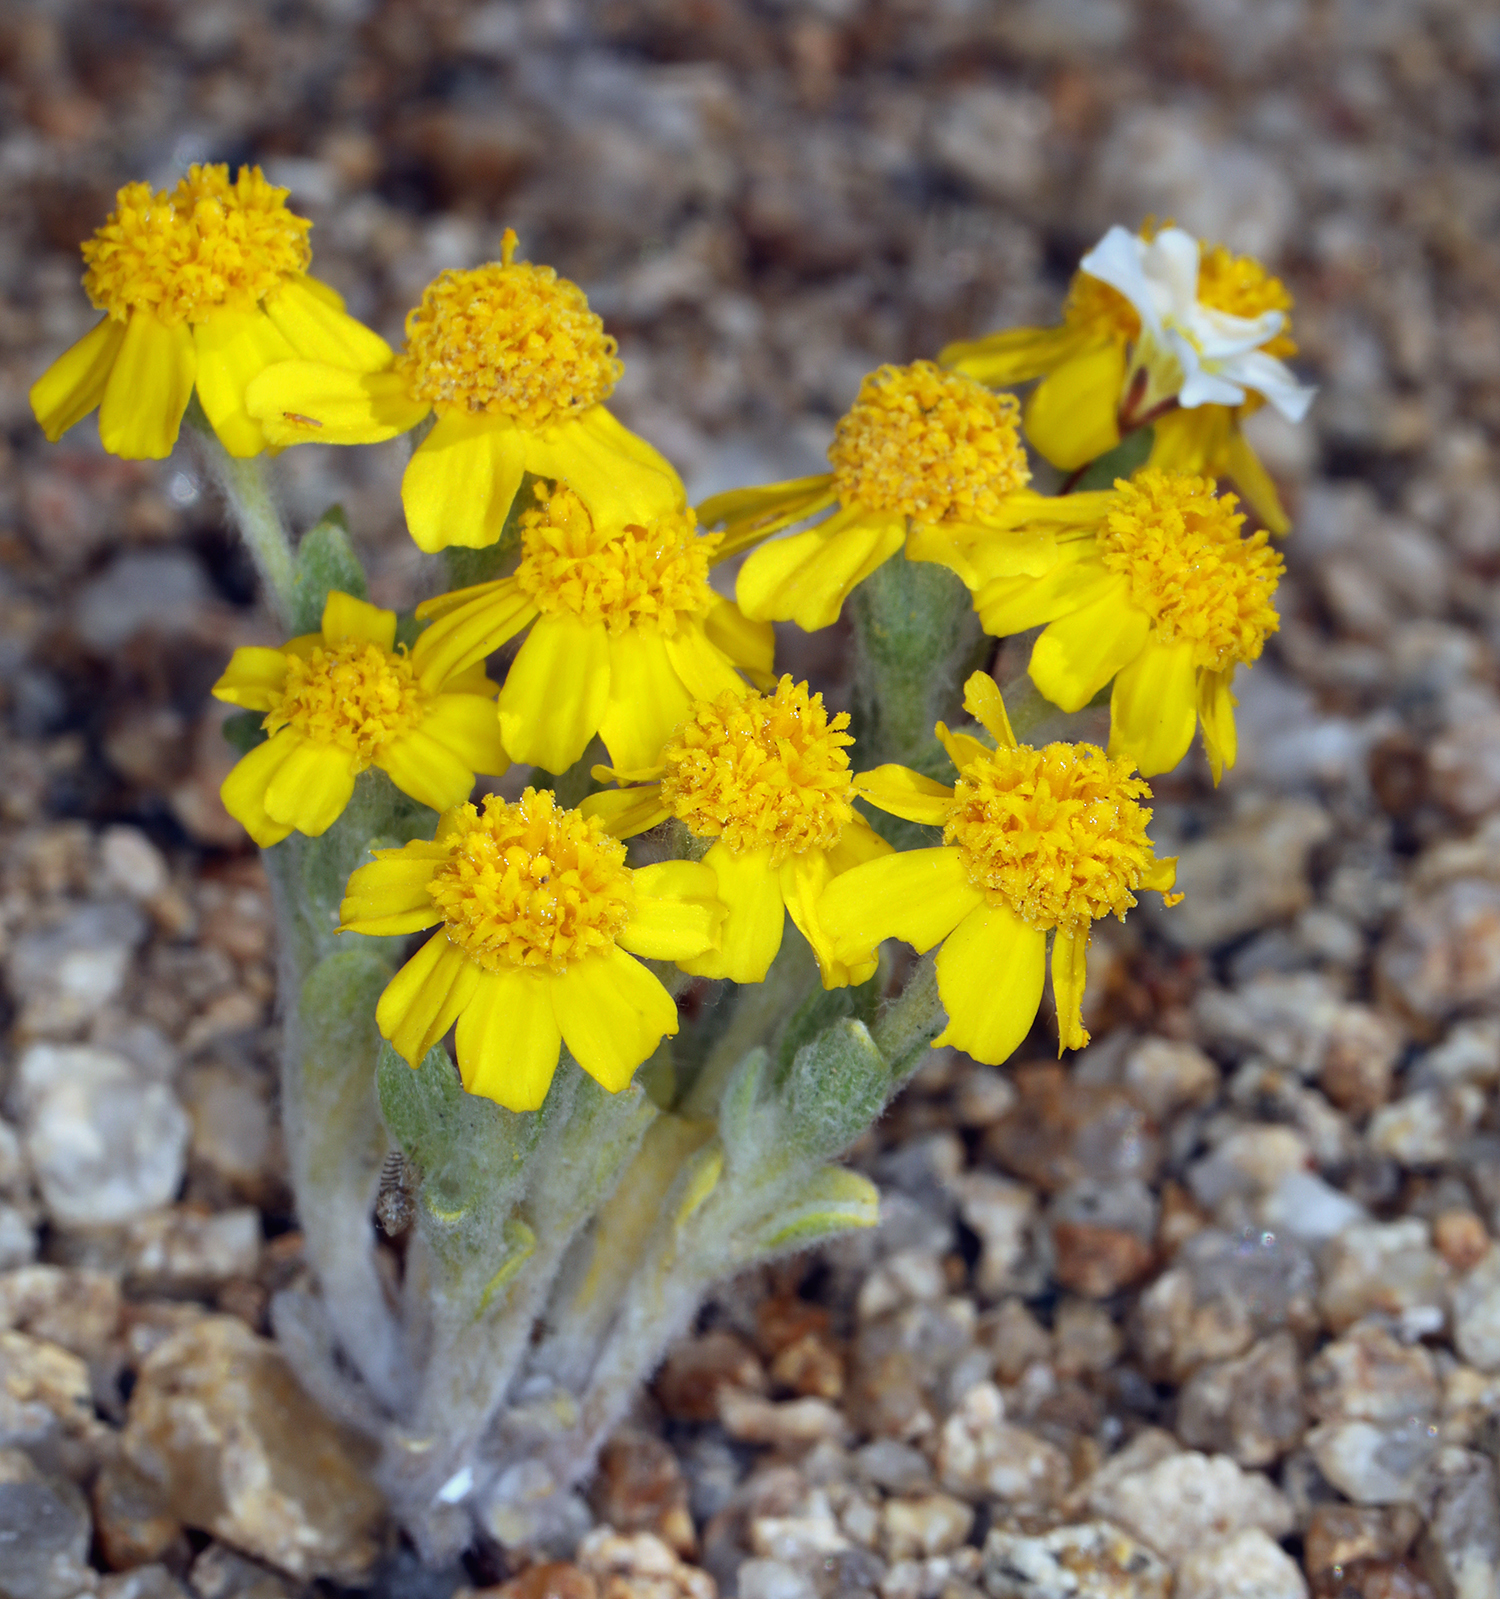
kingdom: Plantae
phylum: Tracheophyta
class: Magnoliopsida
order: Asterales
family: Asteraceae
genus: Eriophyllum
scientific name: Eriophyllum wallacei
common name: Wallace's woolly daisy
